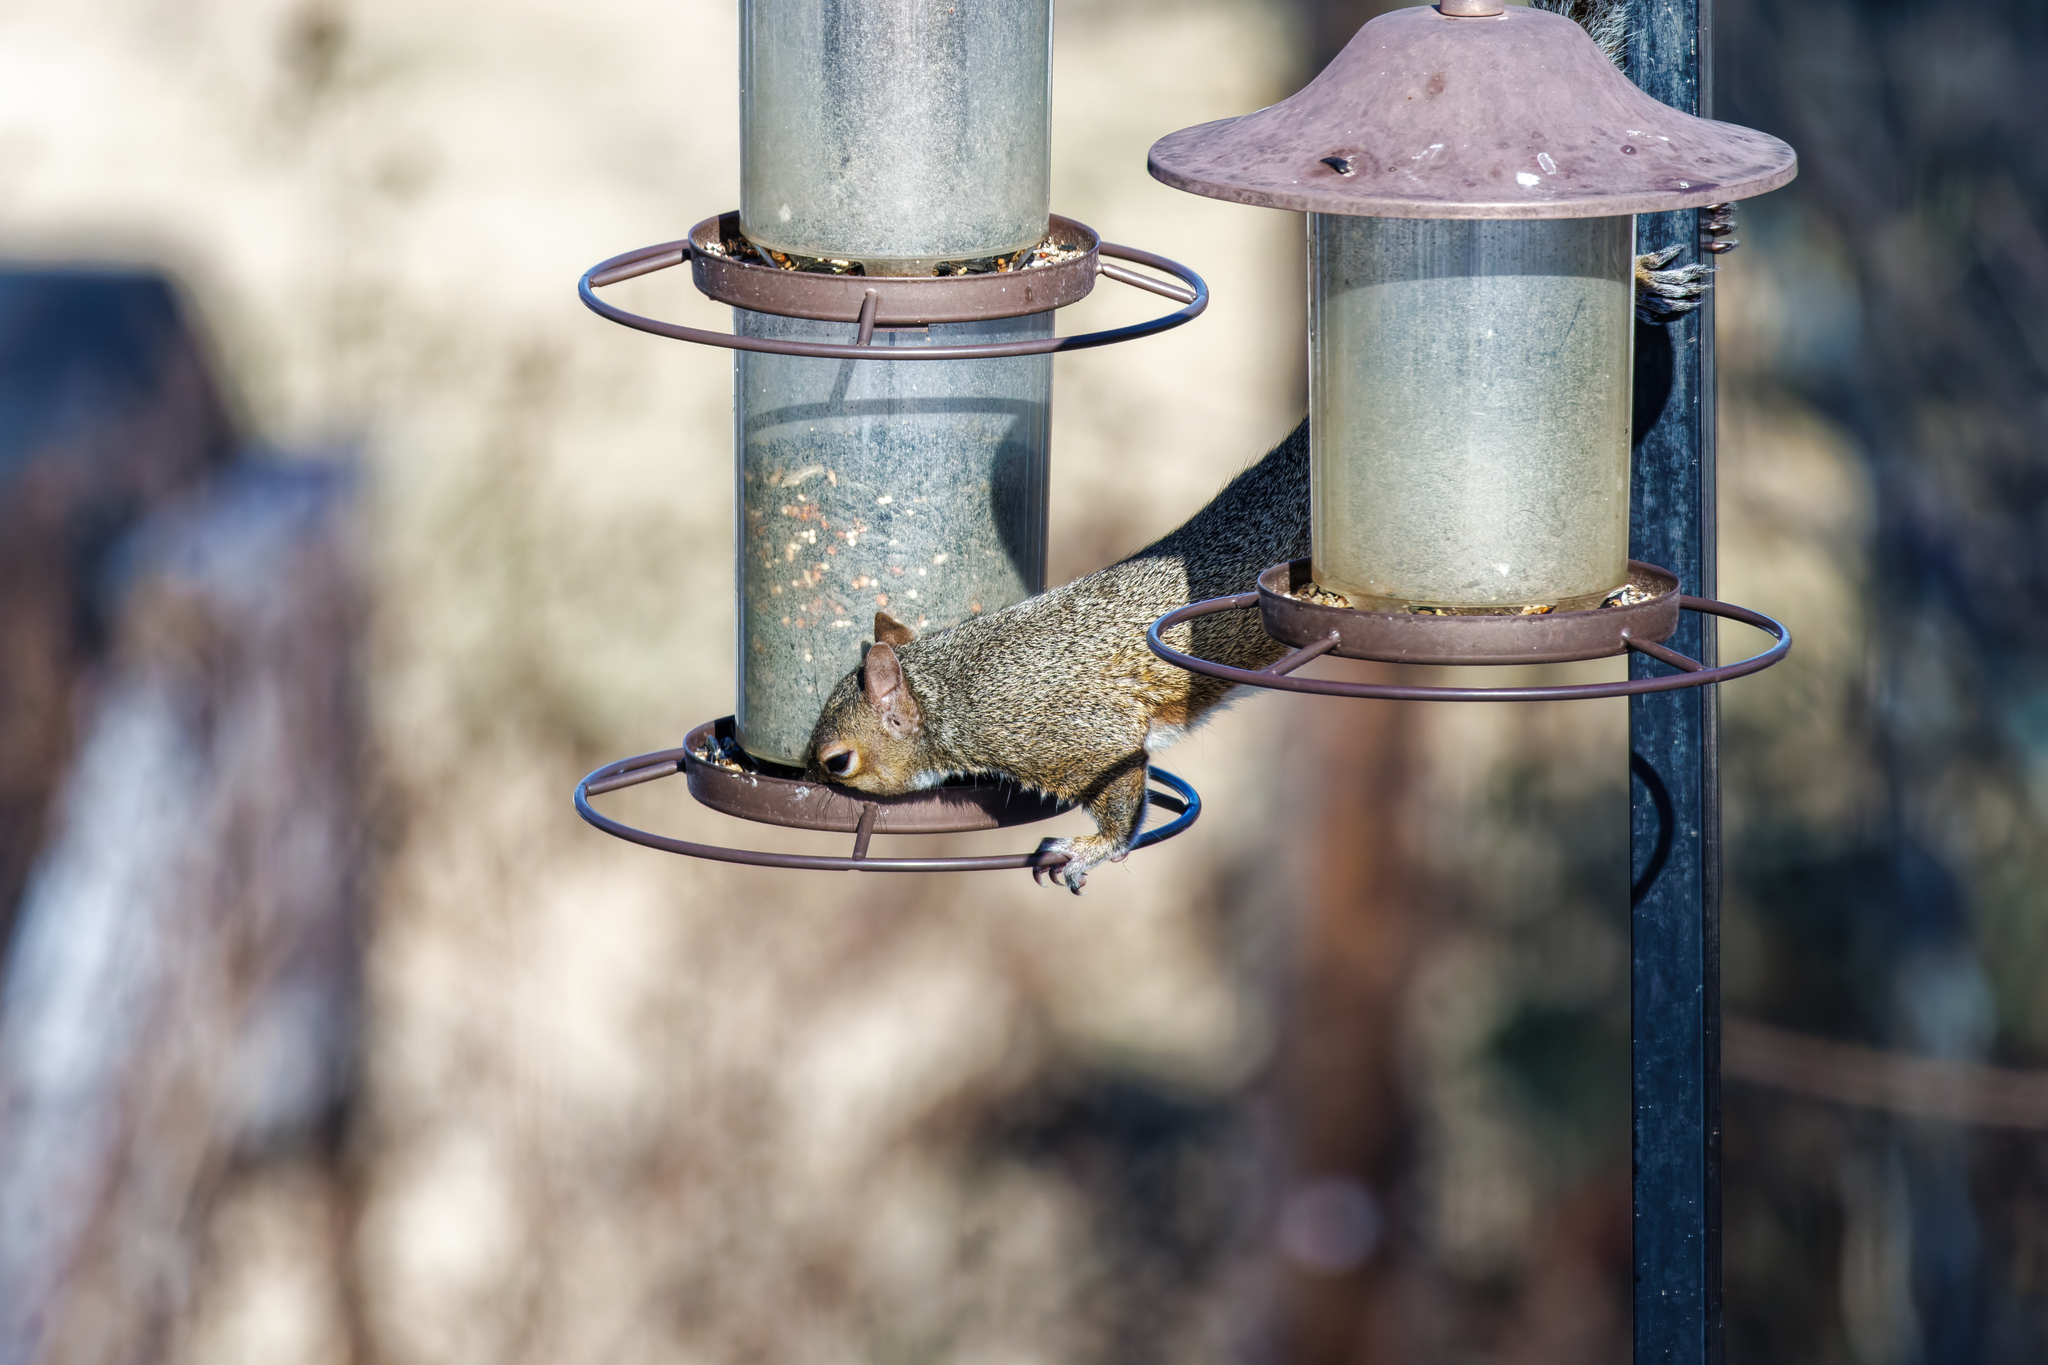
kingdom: Animalia
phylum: Chordata
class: Mammalia
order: Rodentia
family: Sciuridae
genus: Sciurus
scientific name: Sciurus carolinensis
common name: Eastern gray squirrel
